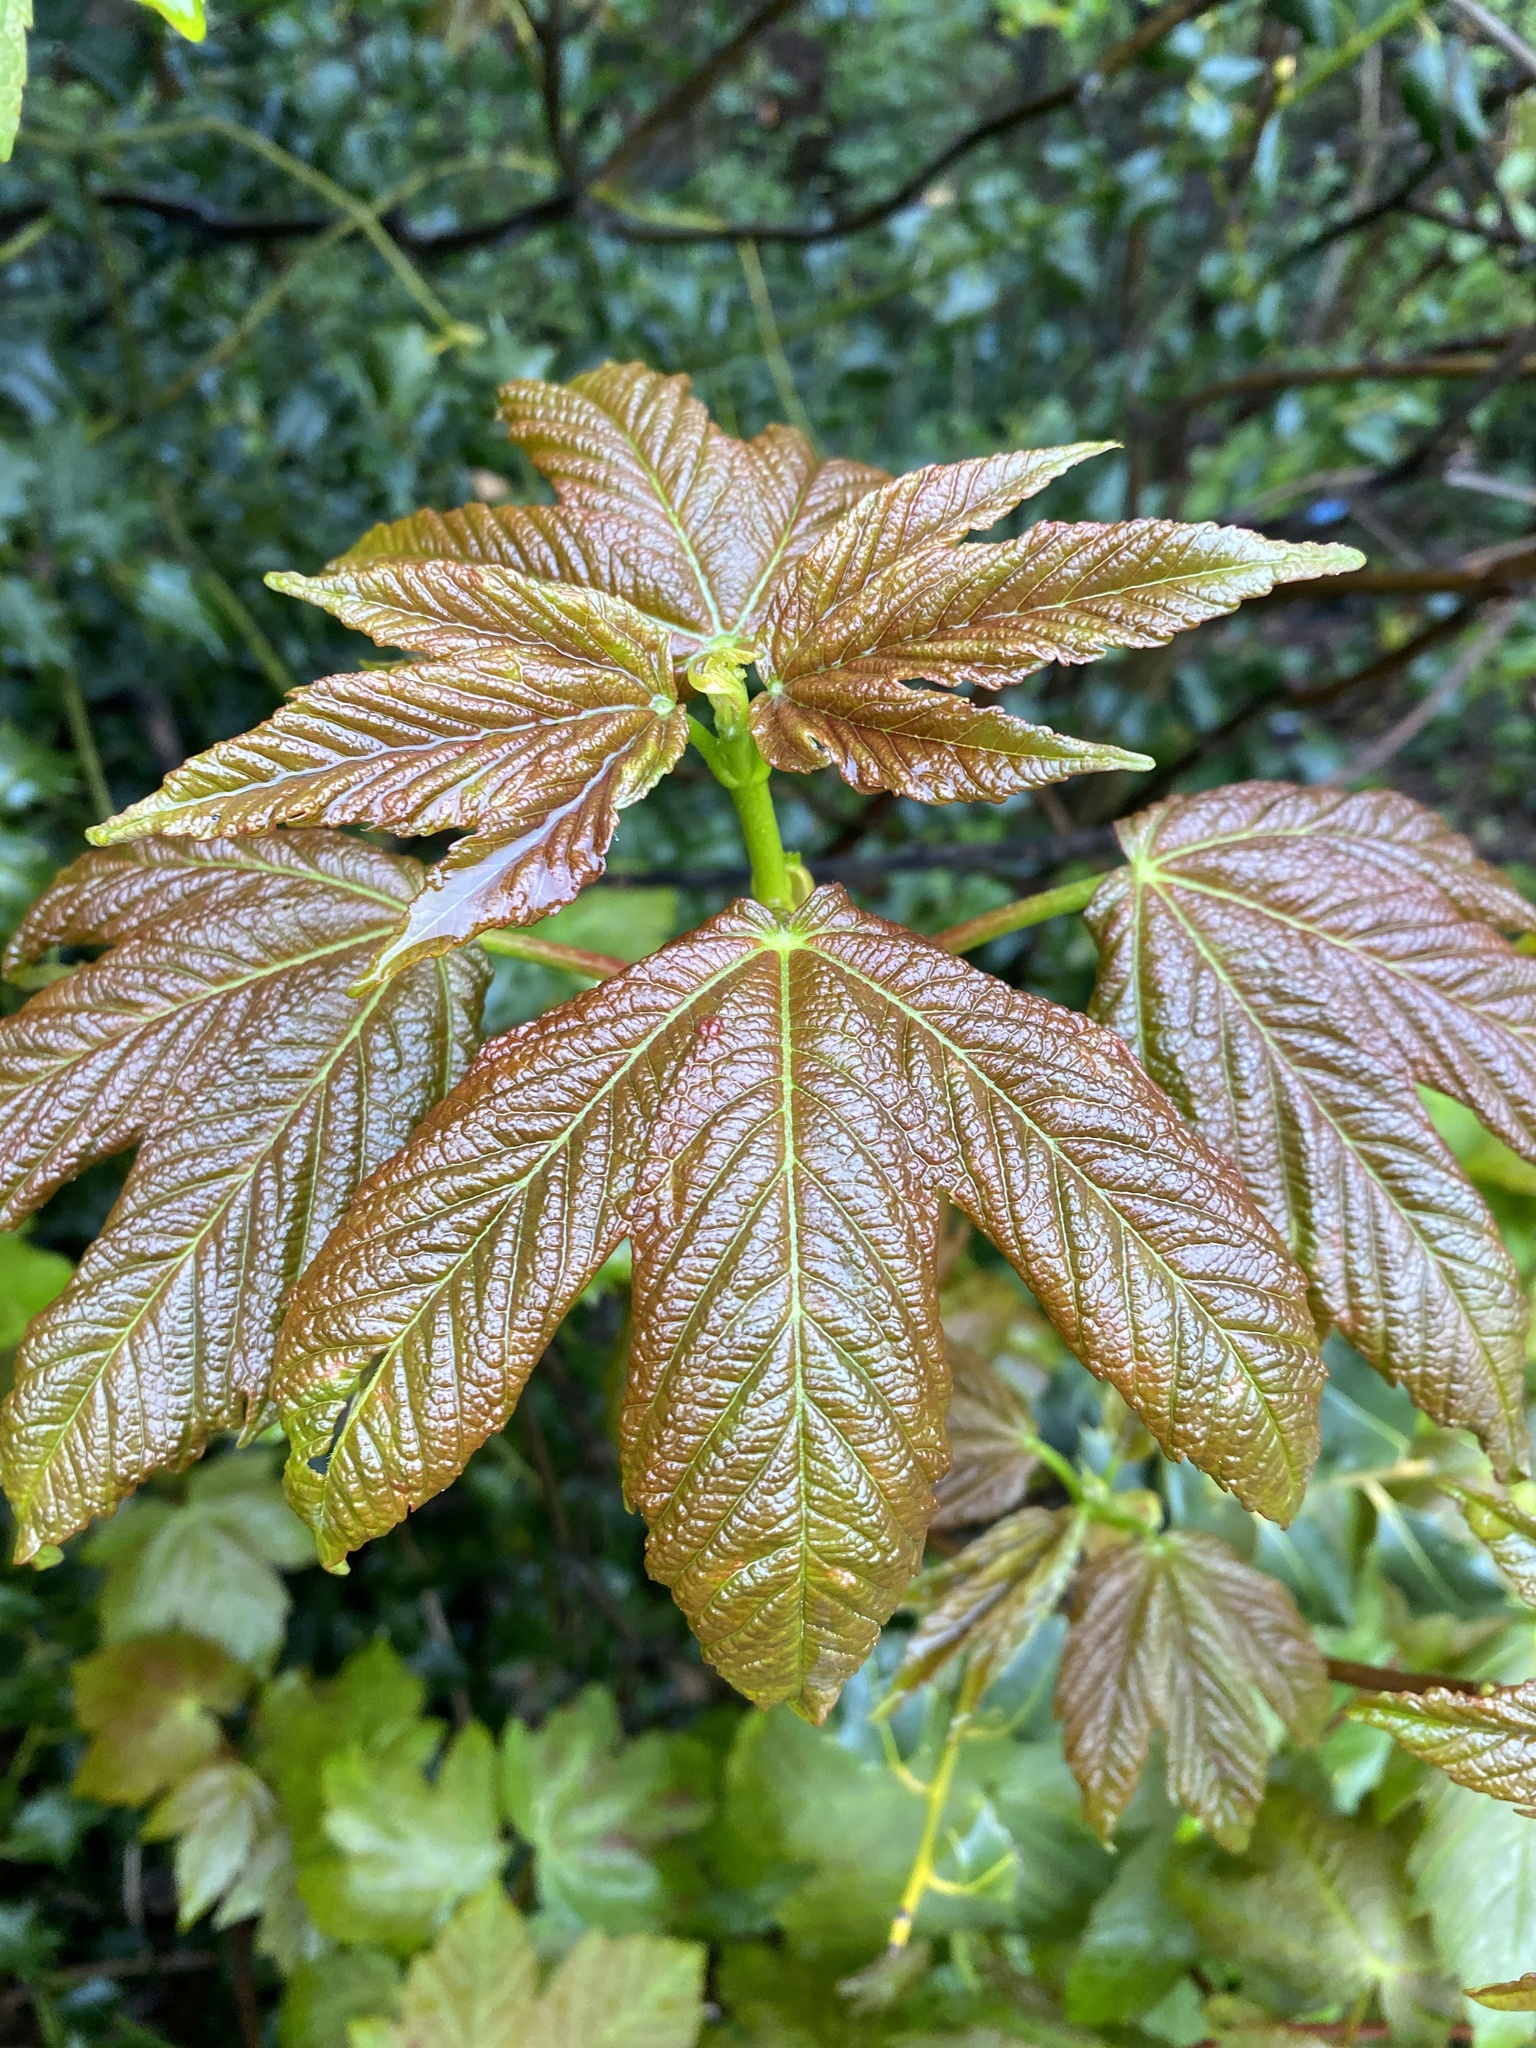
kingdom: Plantae
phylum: Tracheophyta
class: Magnoliopsida
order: Sapindales
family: Sapindaceae
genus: Acer
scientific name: Acer pseudoplatanus
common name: Sycamore
